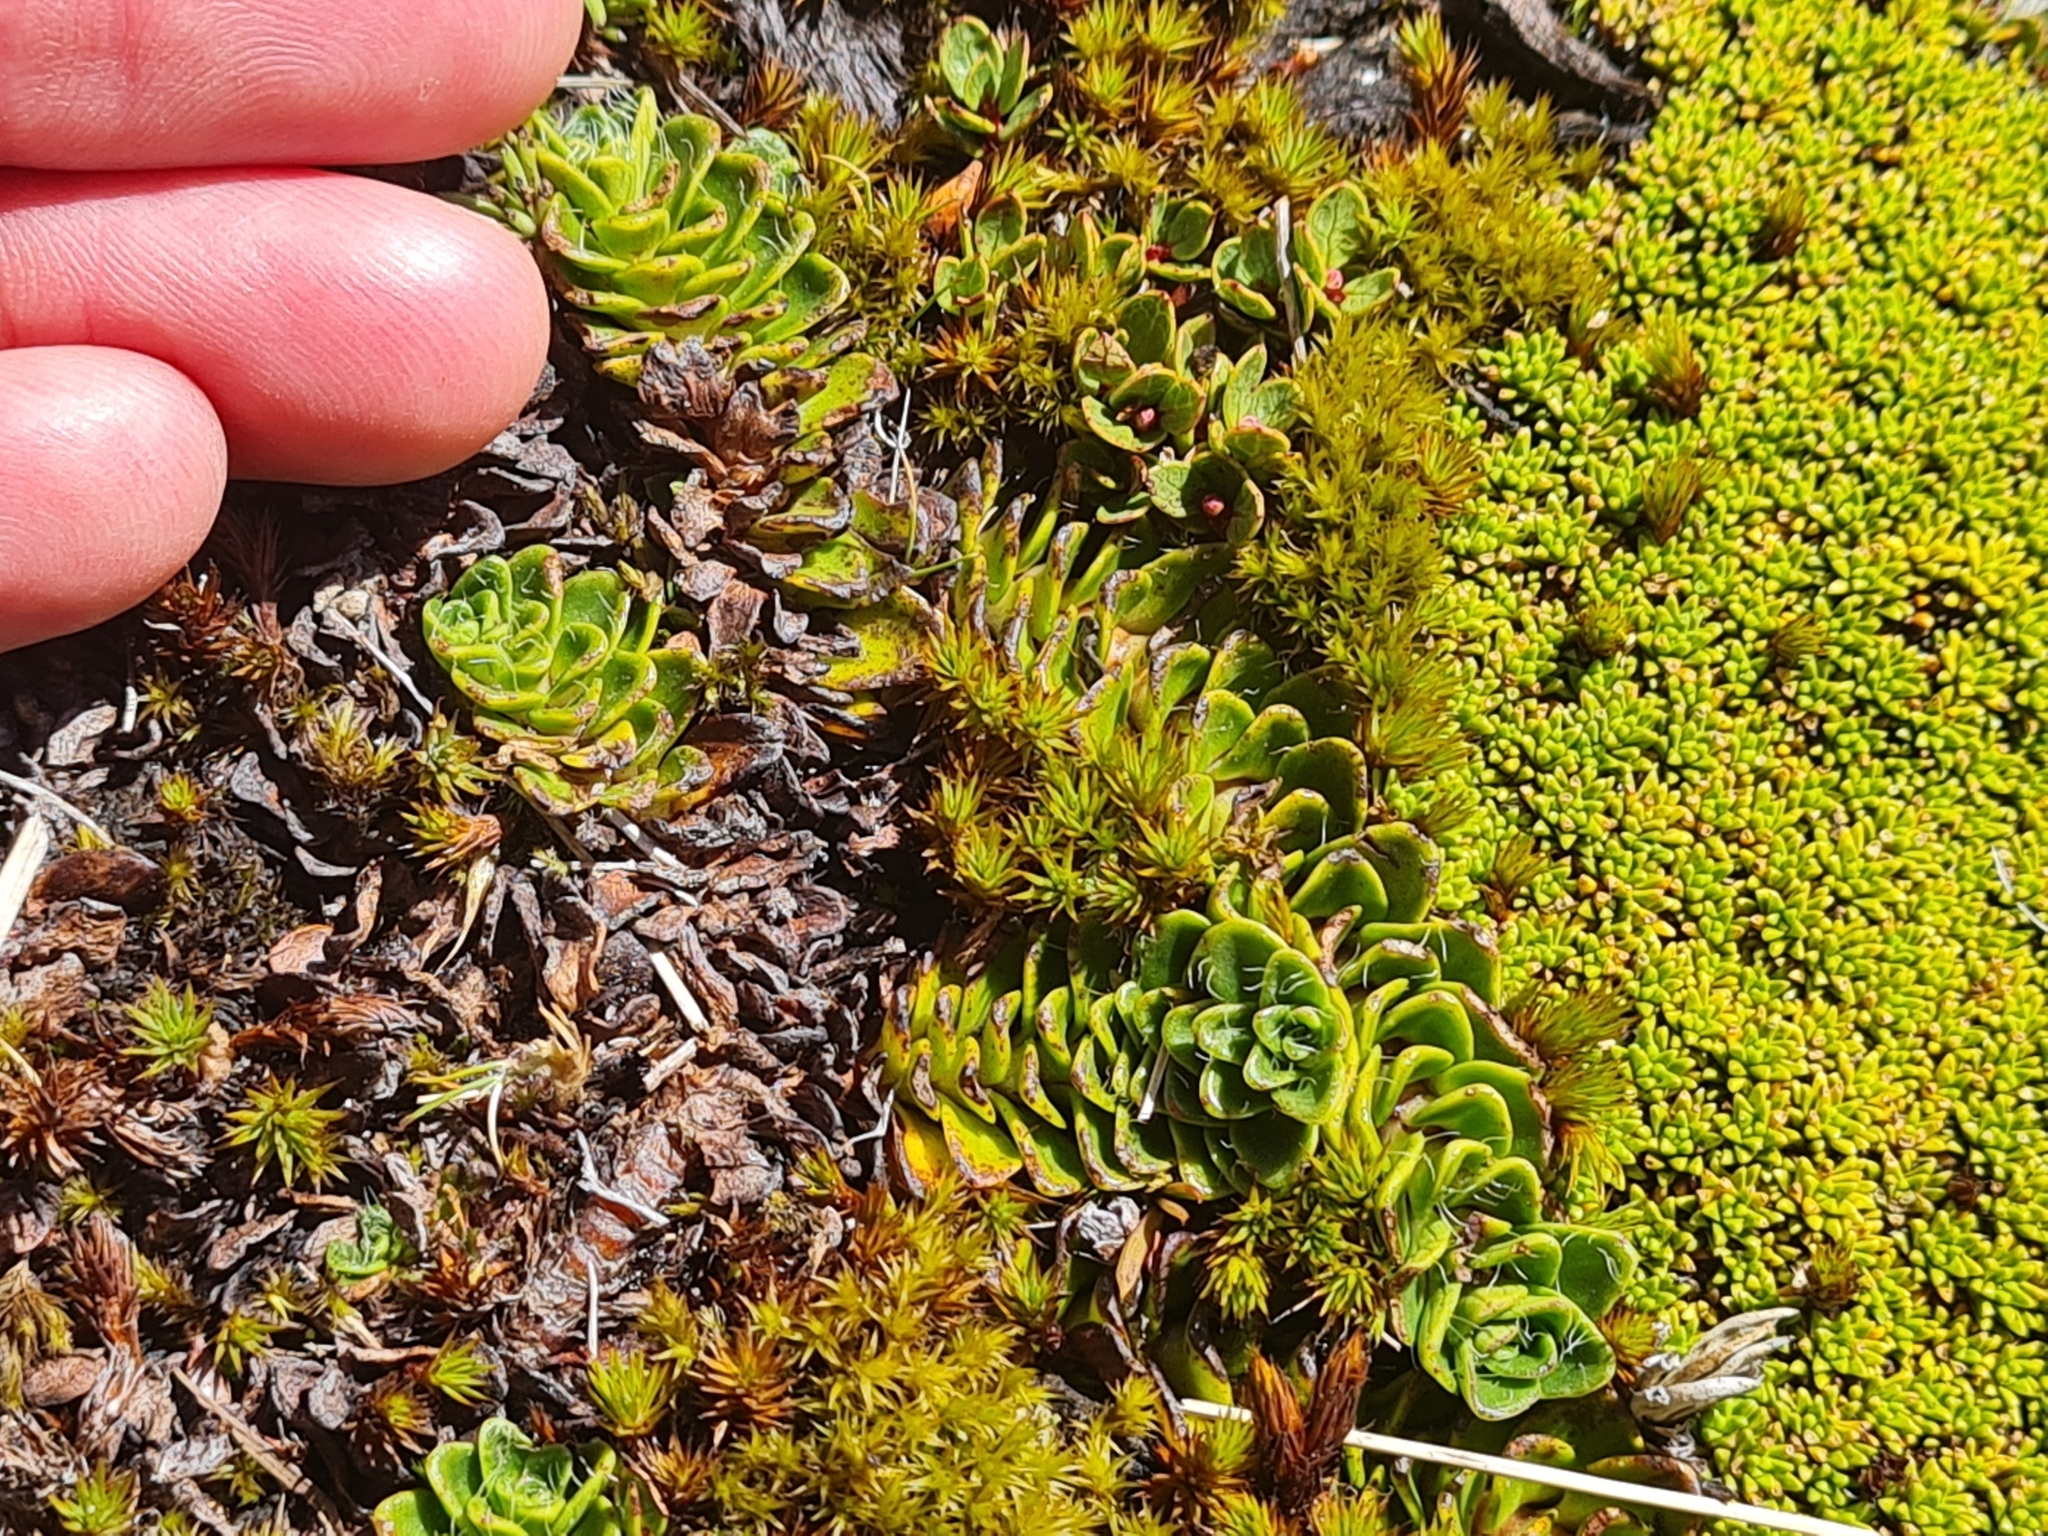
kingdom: Plantae
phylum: Tracheophyta
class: Magnoliopsida
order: Lamiales
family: Plantaginaceae
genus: Ourisia
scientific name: Ourisia glandulosa
